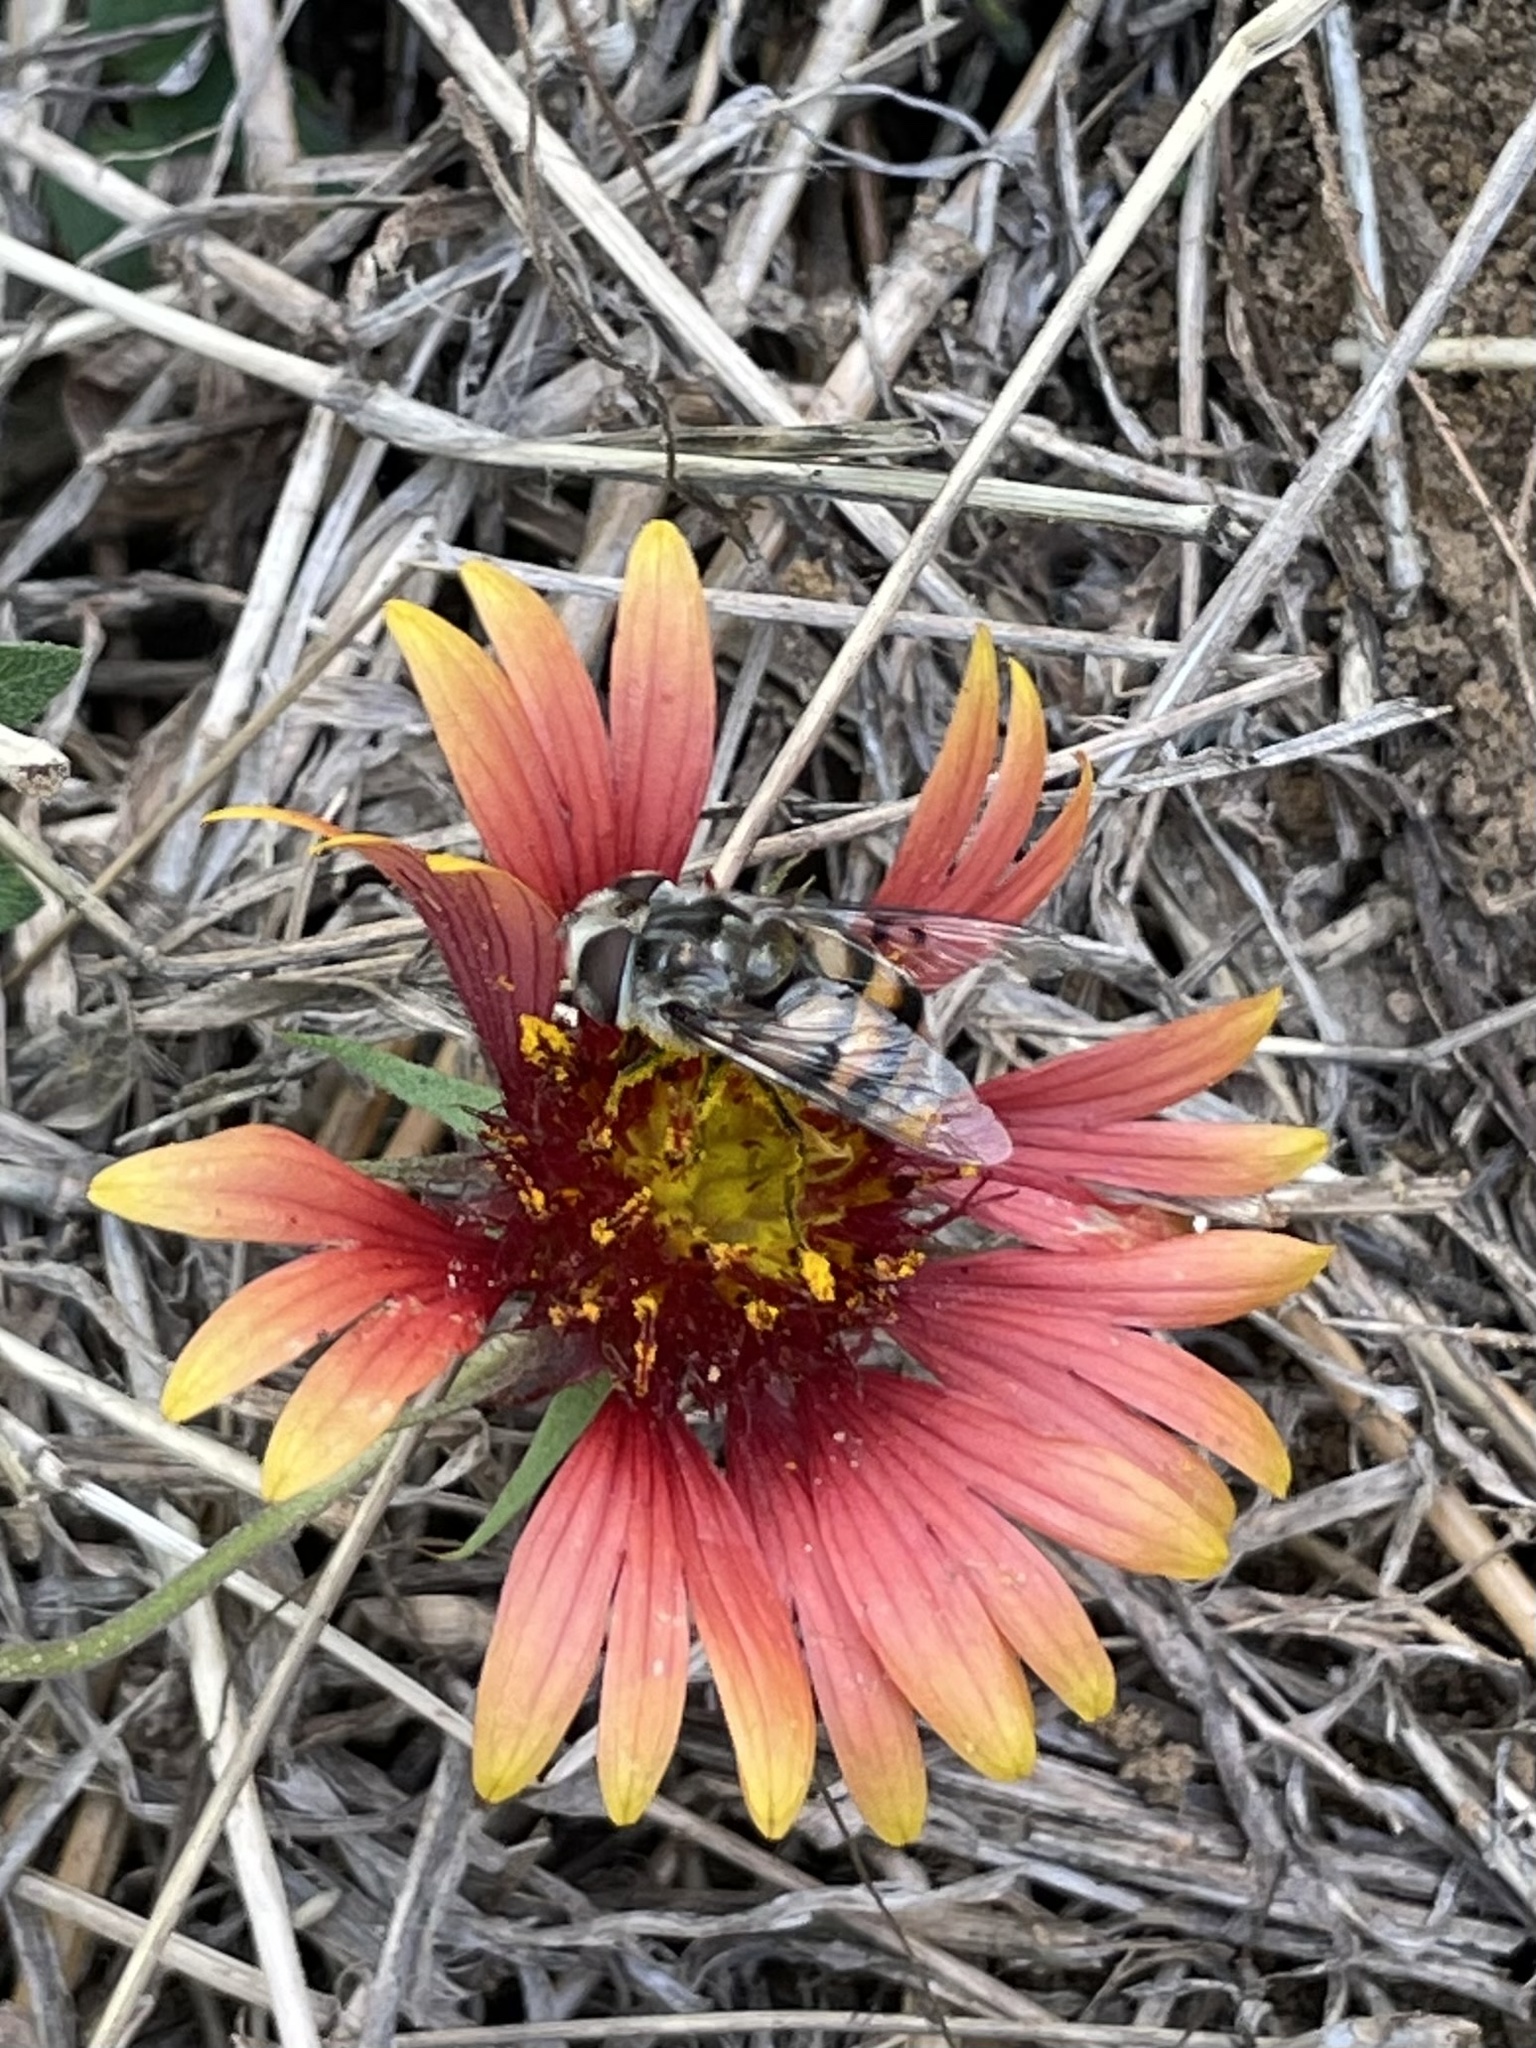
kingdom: Animalia
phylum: Arthropoda
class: Insecta
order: Diptera
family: Syrphidae
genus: Copestylum
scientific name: Copestylum avidum
